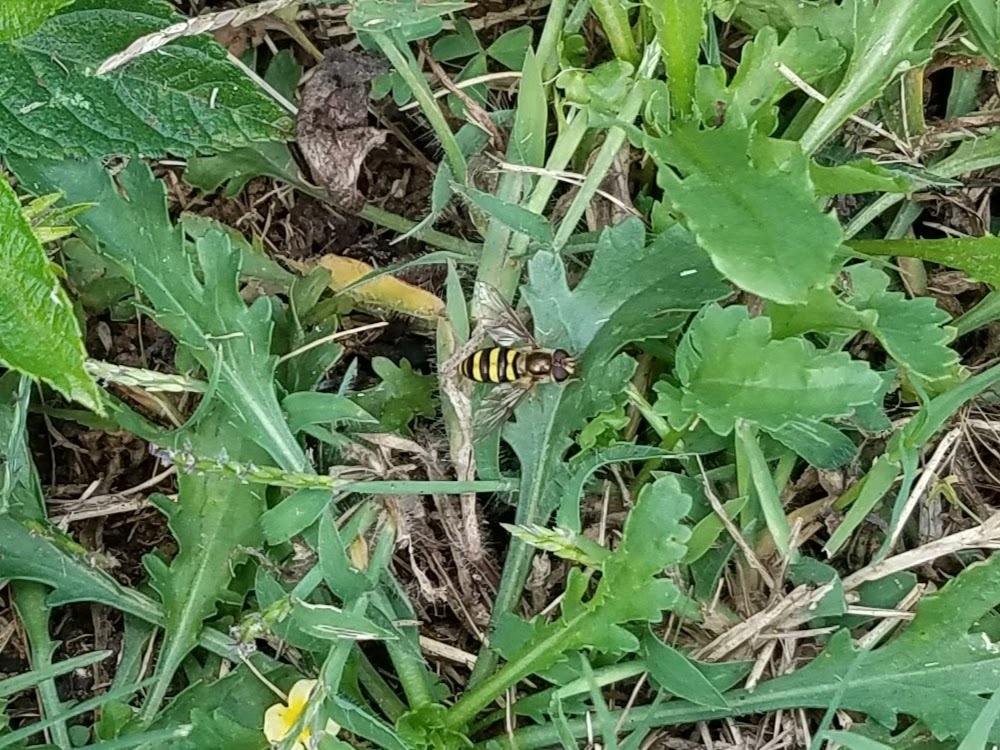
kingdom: Animalia
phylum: Arthropoda
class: Insecta
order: Diptera
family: Syrphidae
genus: Eupeodes
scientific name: Eupeodes
